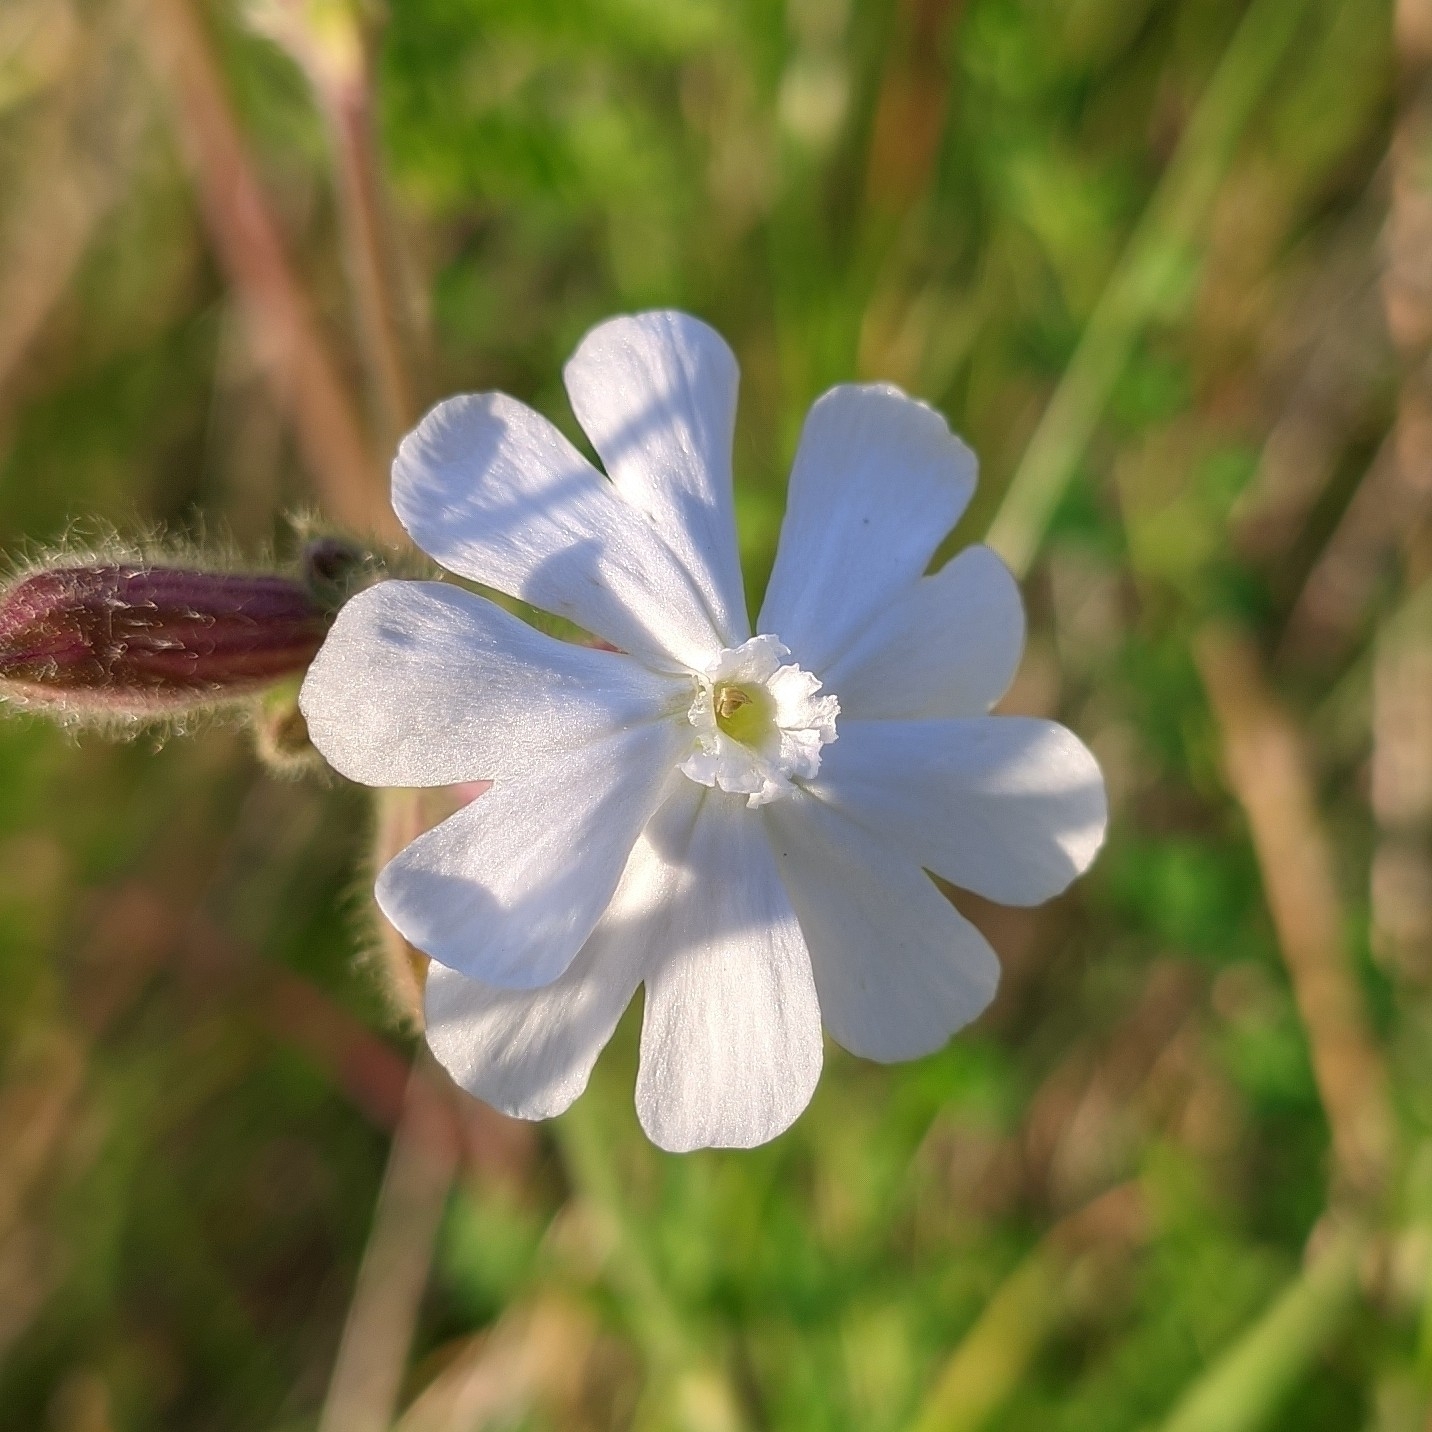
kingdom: Plantae
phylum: Tracheophyta
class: Magnoliopsida
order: Caryophyllales
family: Caryophyllaceae
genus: Silene
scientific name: Silene latifolia
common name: White campion
